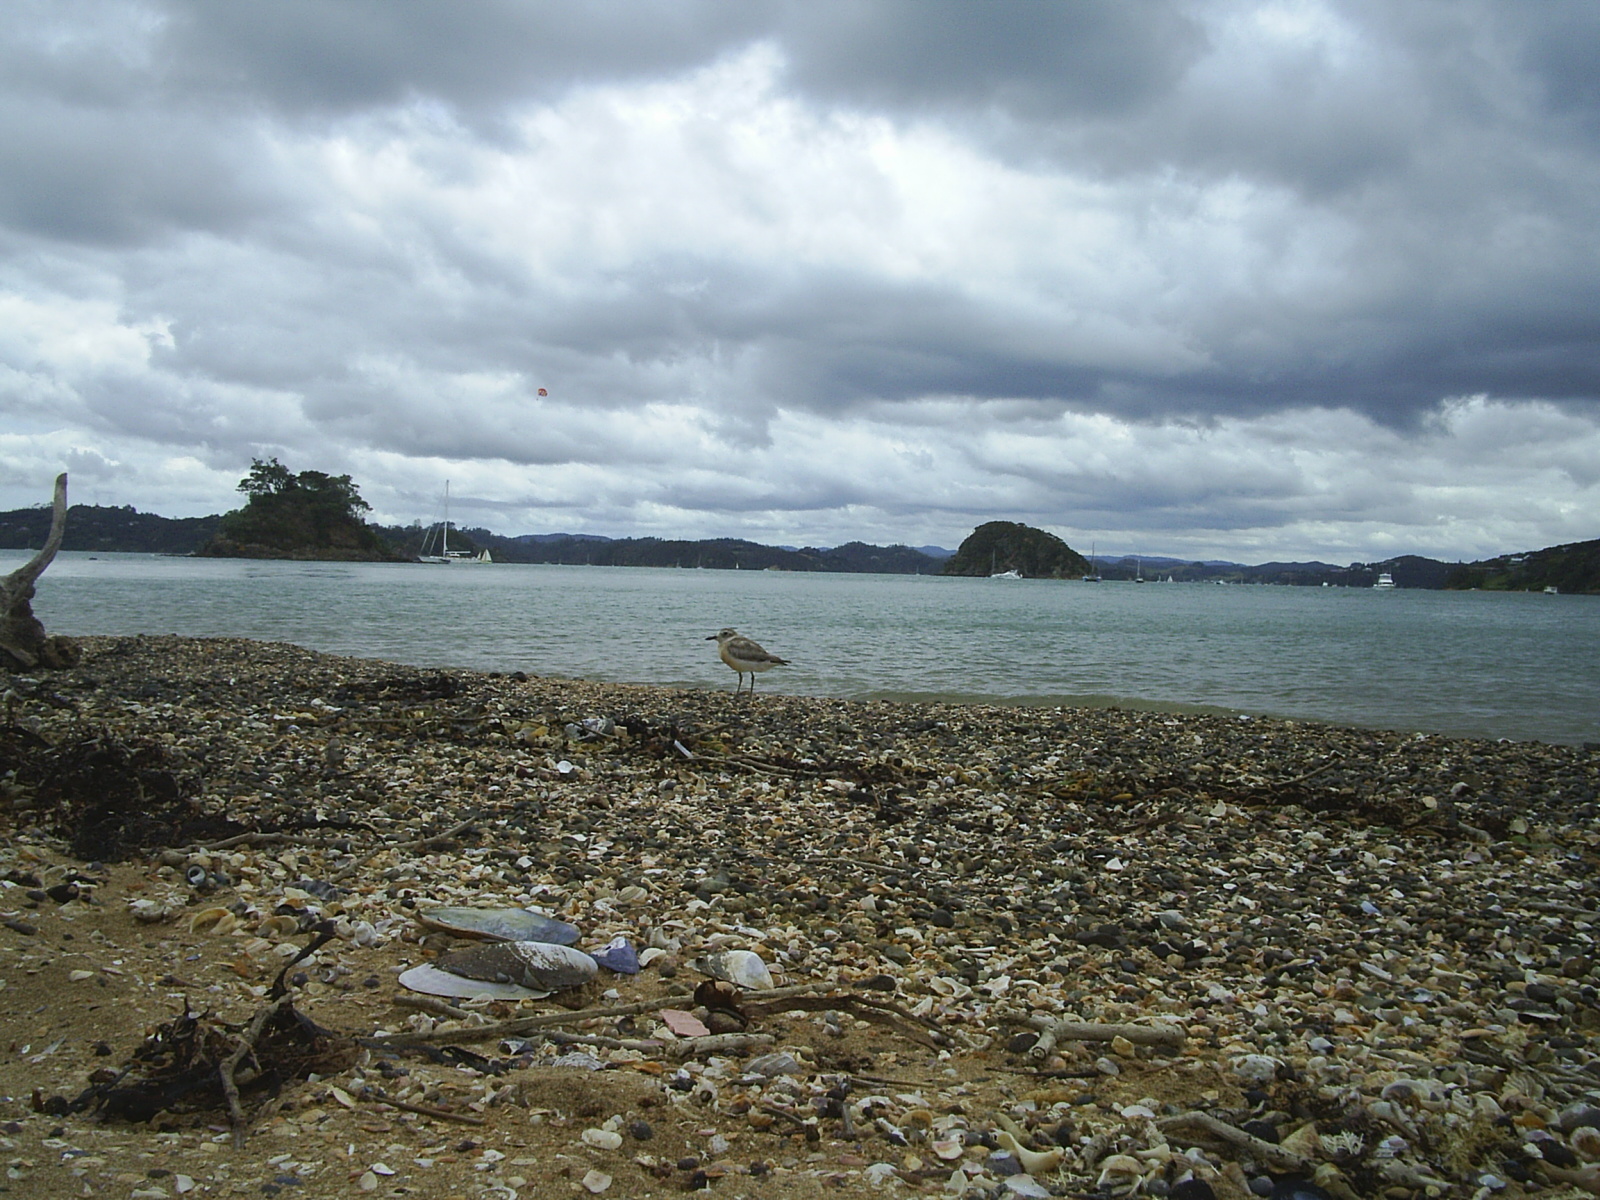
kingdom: Animalia
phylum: Chordata
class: Aves
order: Charadriiformes
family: Charadriidae
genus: Anarhynchus
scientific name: Anarhynchus
